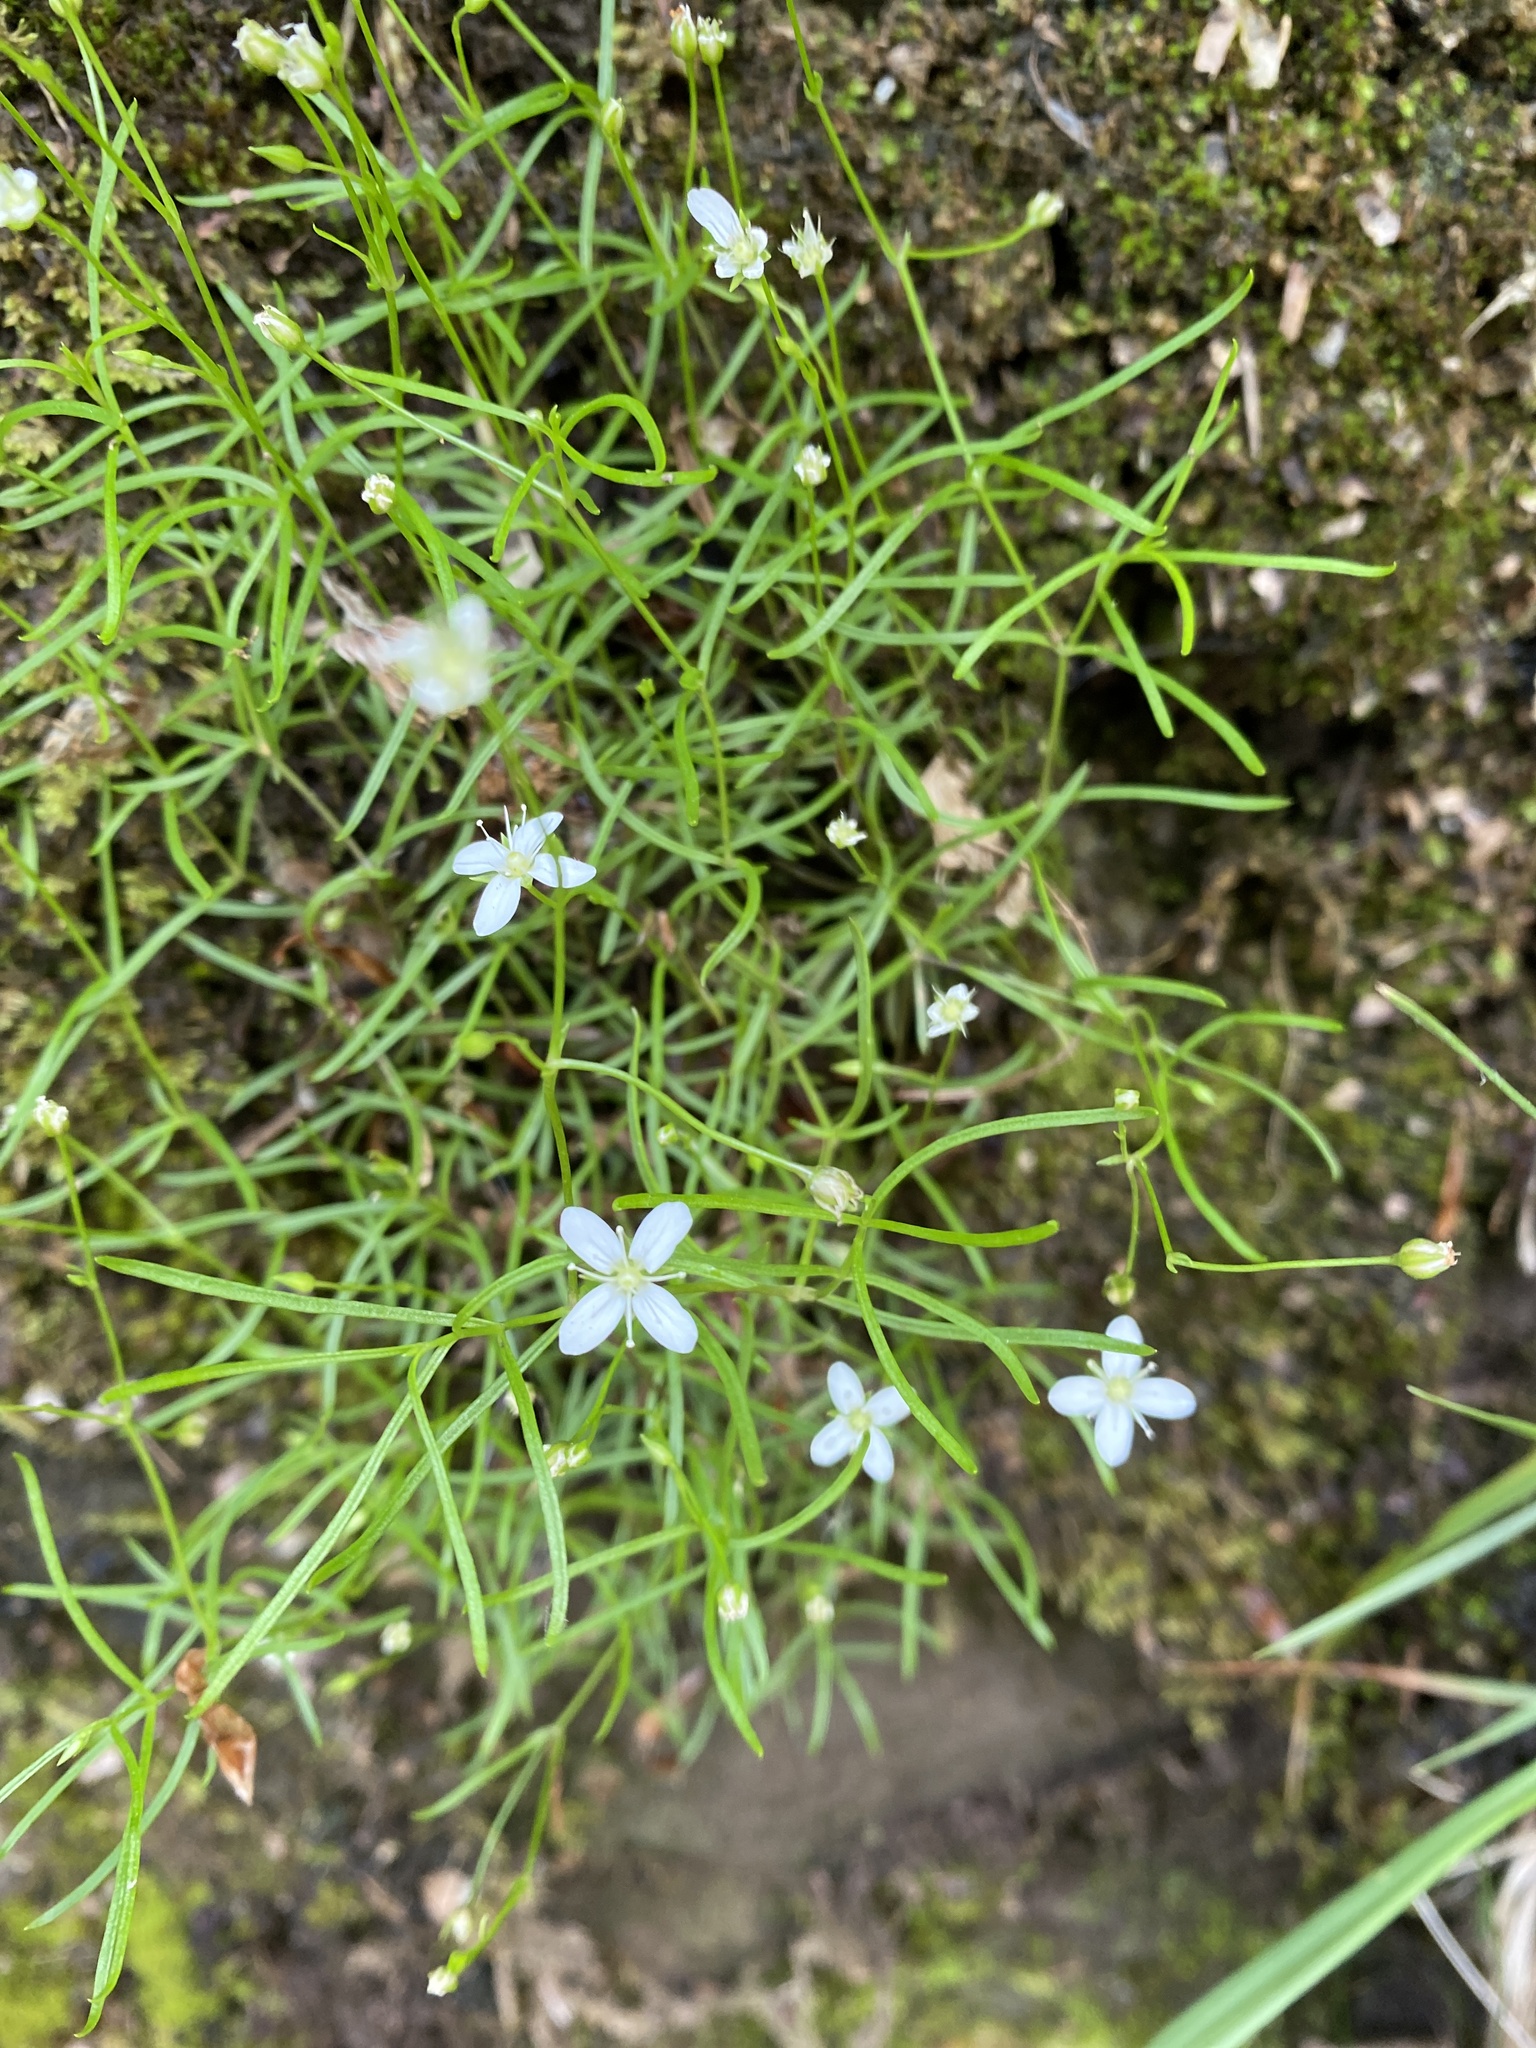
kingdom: Plantae
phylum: Tracheophyta
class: Magnoliopsida
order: Caryophyllales
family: Caryophyllaceae
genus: Moehringia
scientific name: Moehringia muscosa
